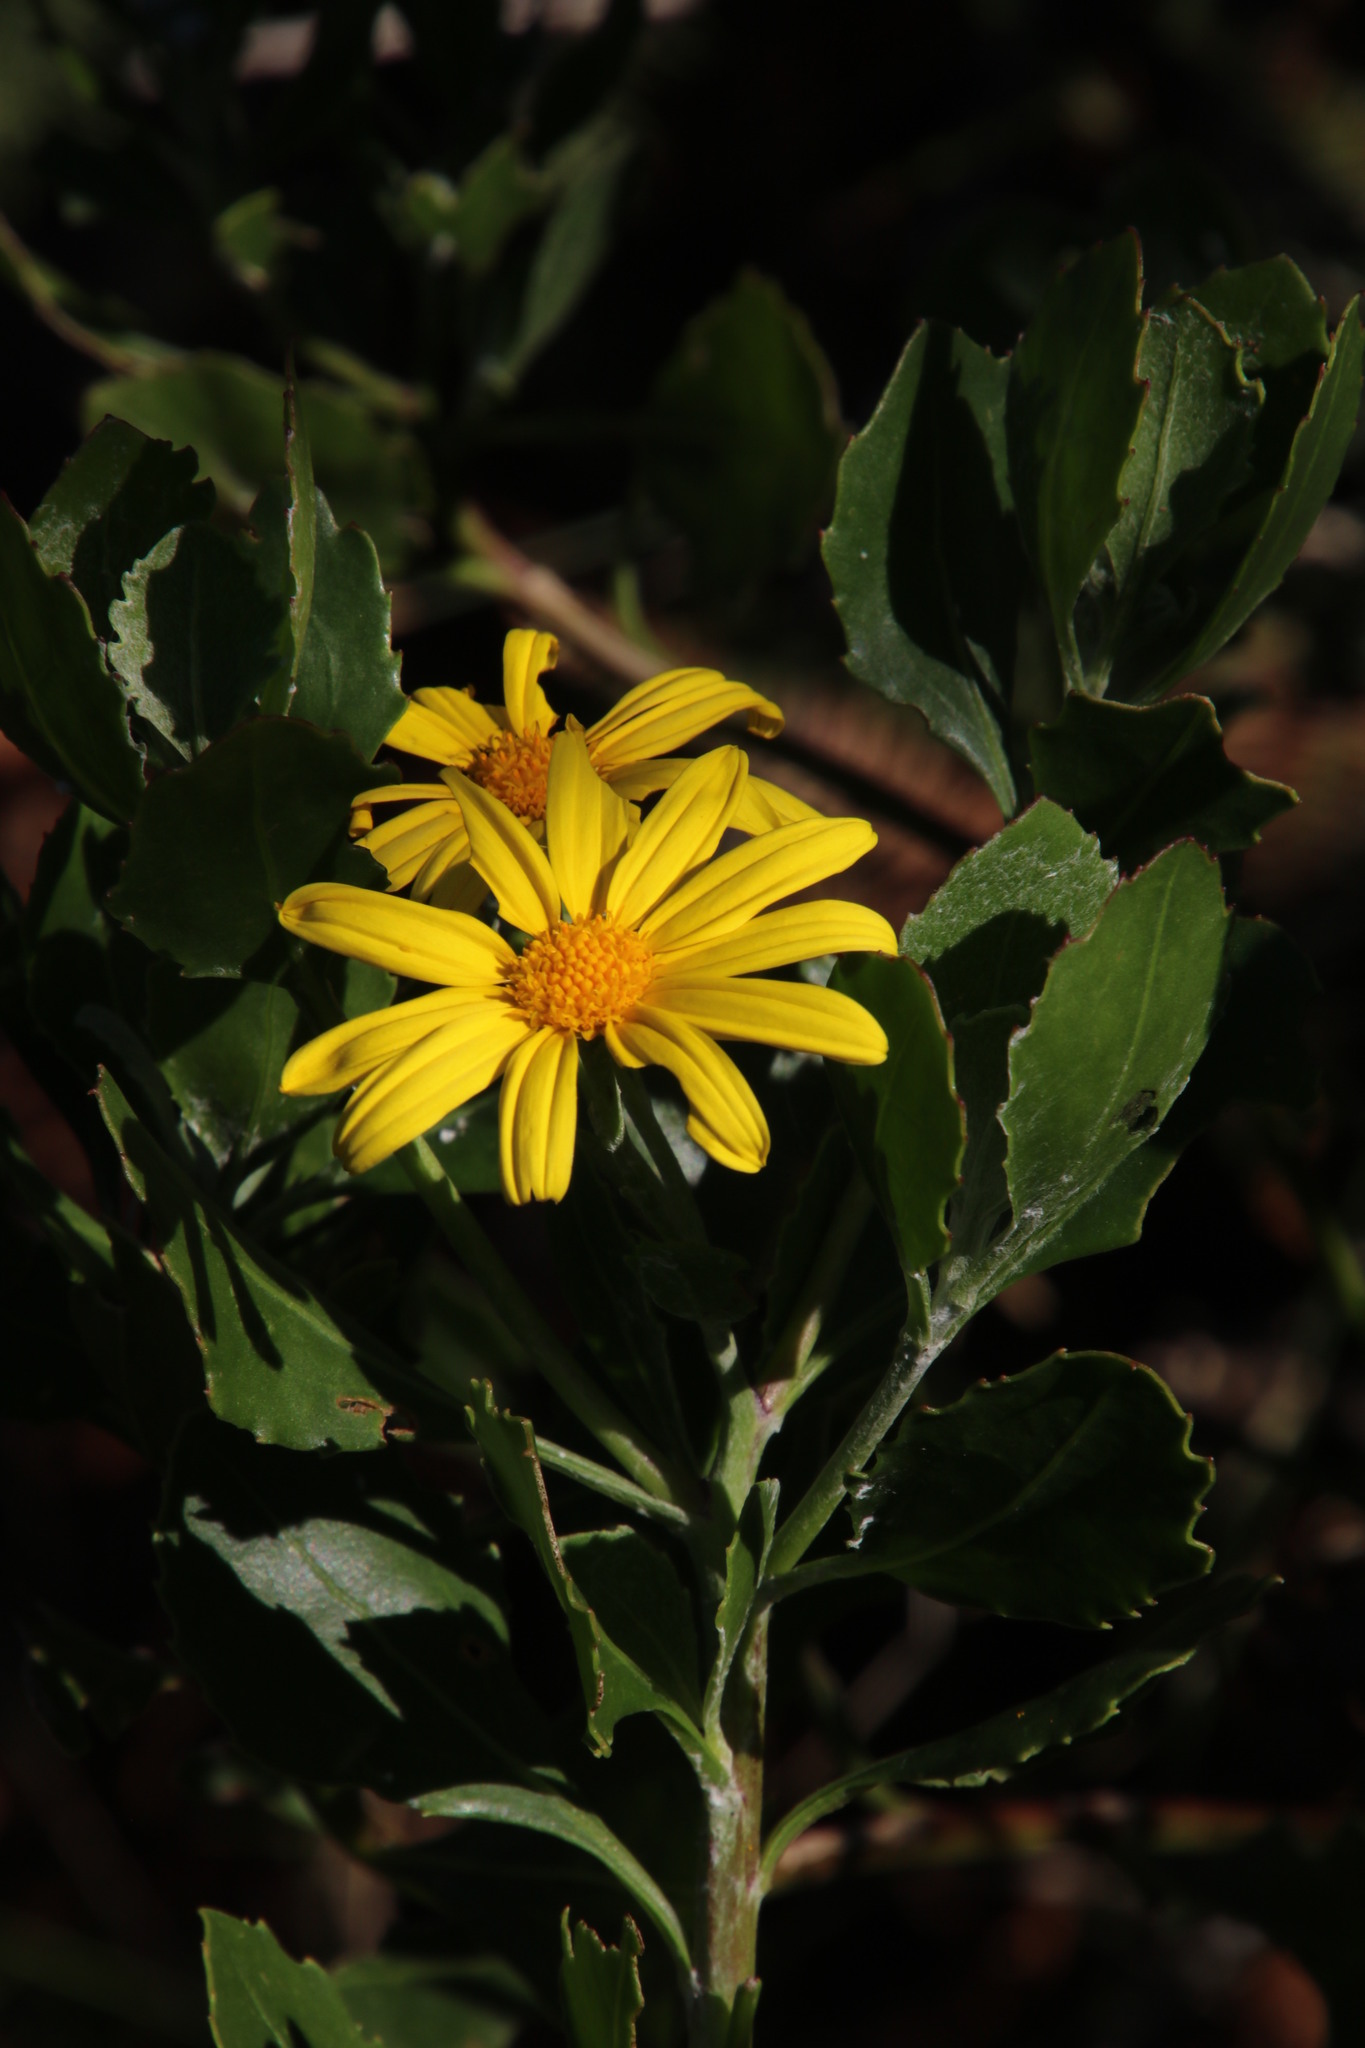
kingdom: Plantae
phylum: Tracheophyta
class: Magnoliopsida
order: Asterales
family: Asteraceae
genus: Osteospermum
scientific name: Osteospermum moniliferum
